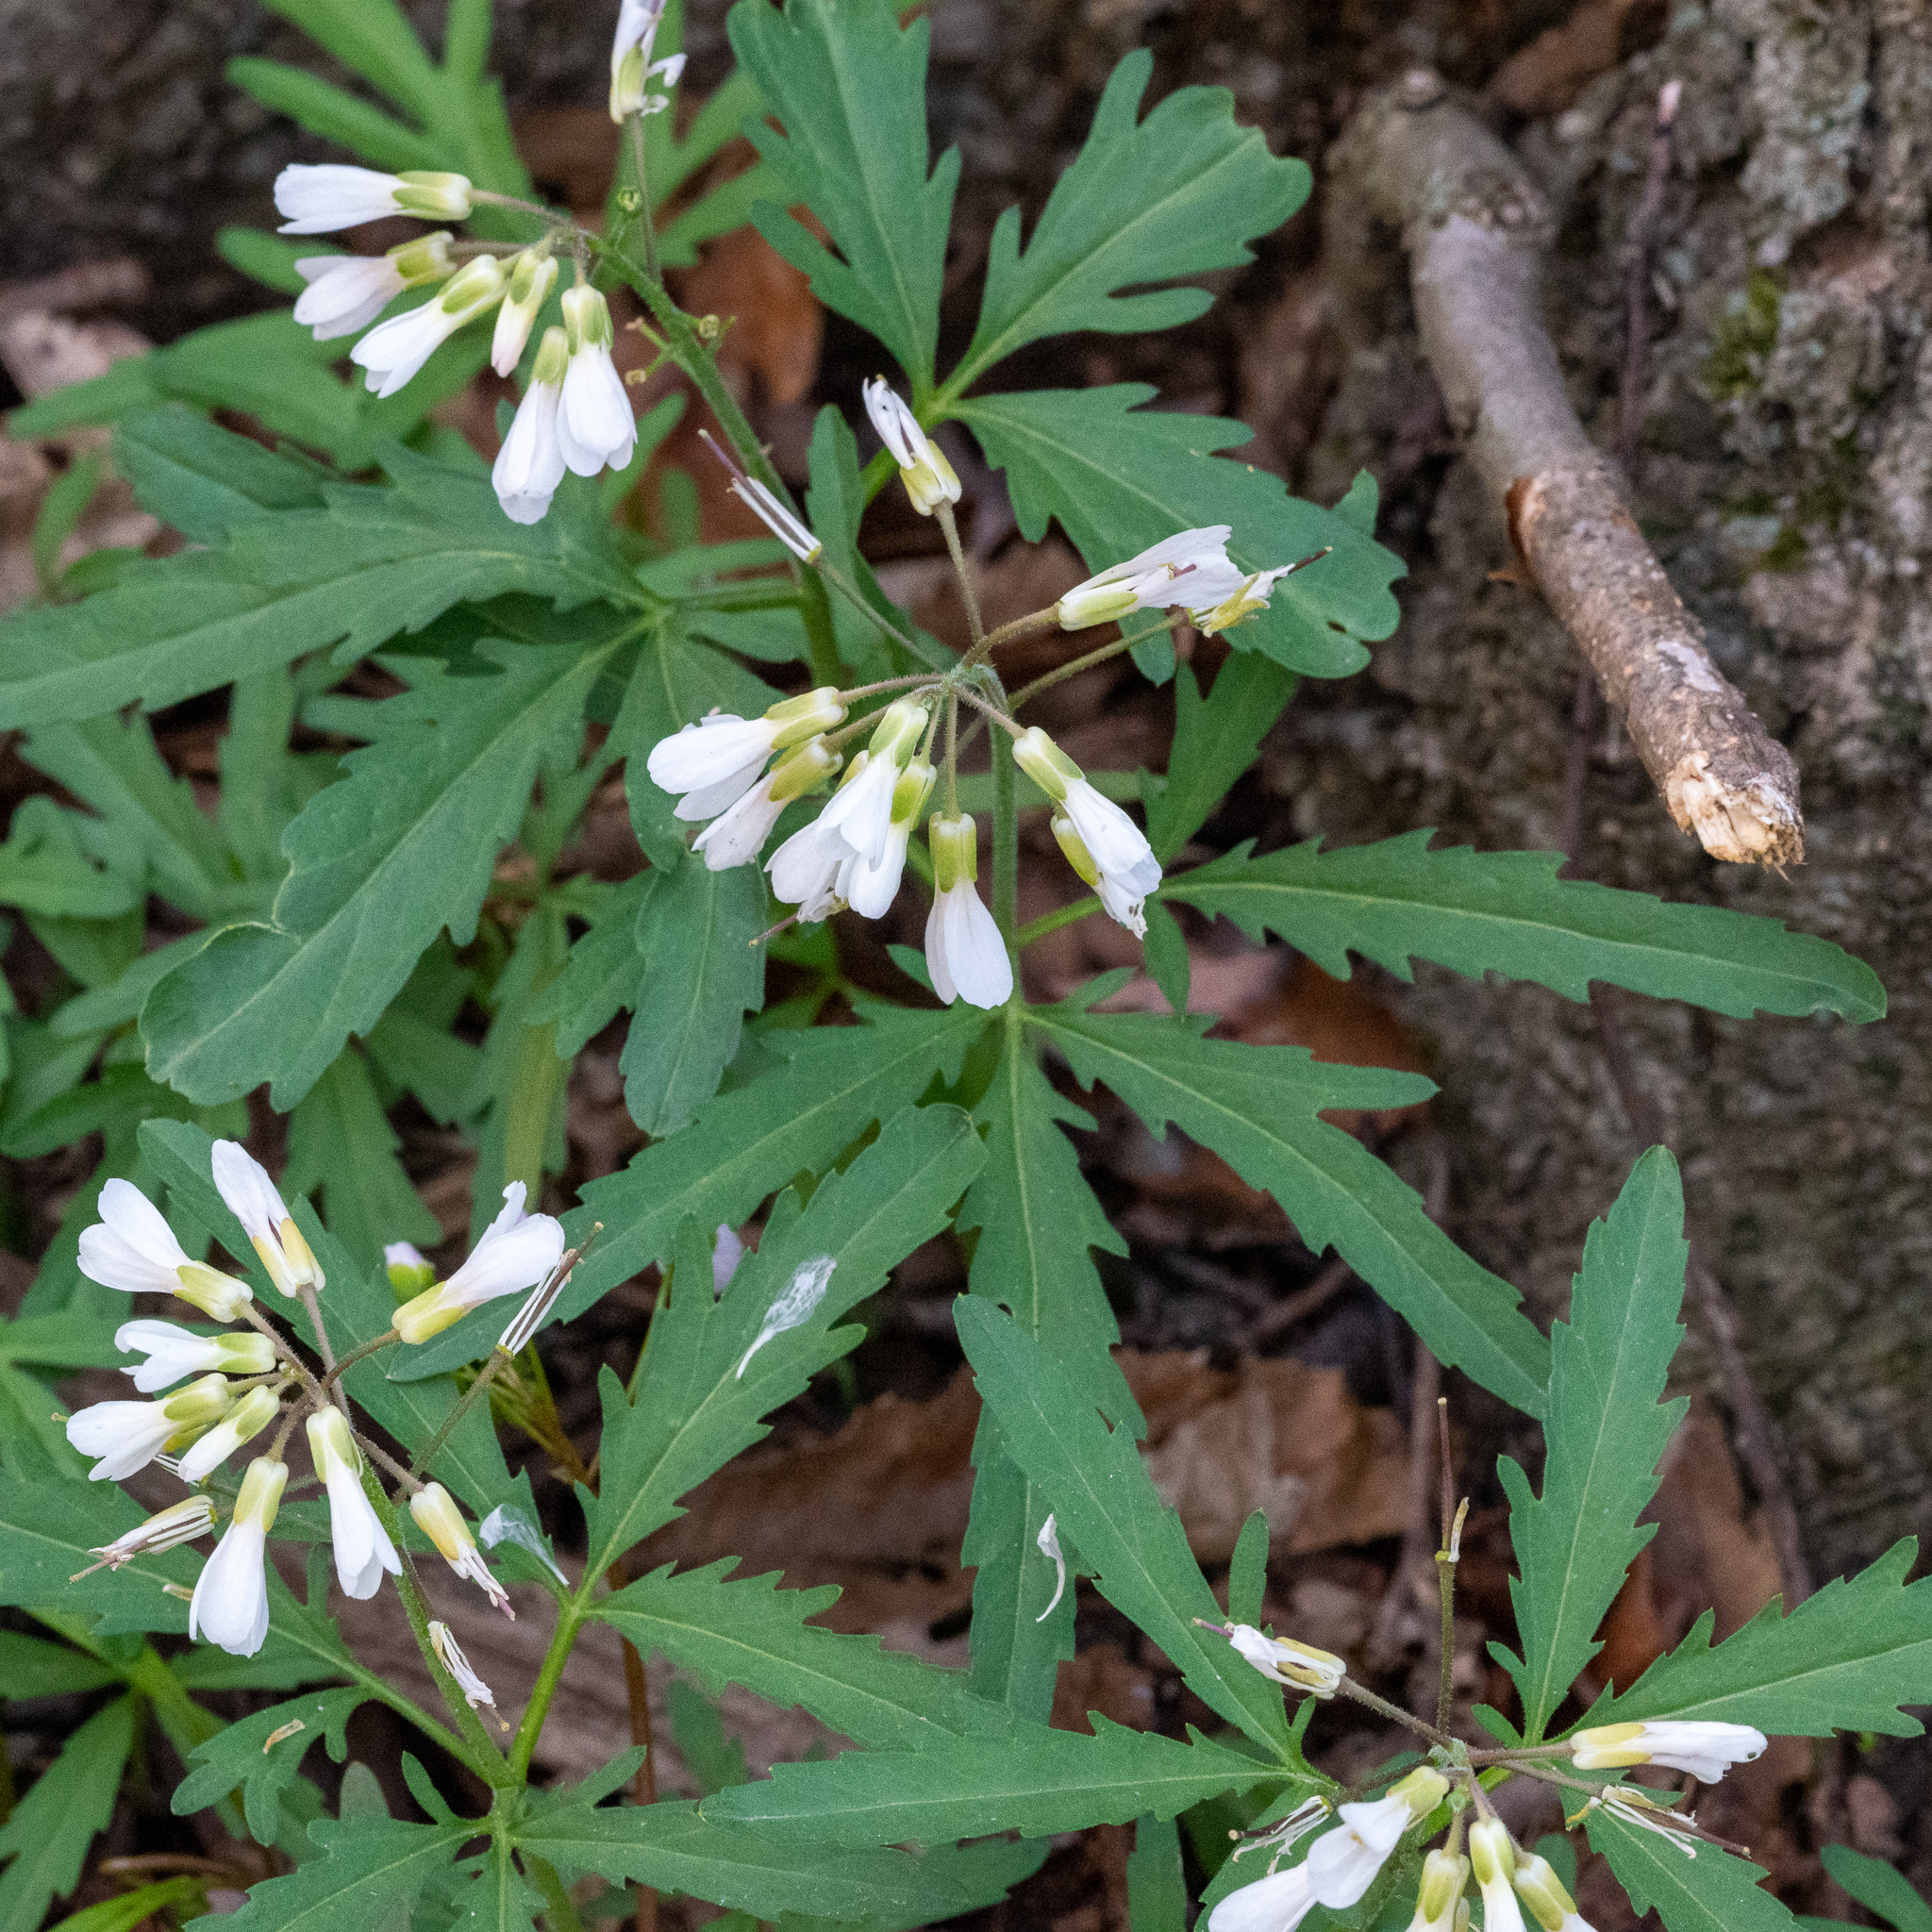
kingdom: Plantae
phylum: Tracheophyta
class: Magnoliopsida
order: Brassicales
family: Brassicaceae
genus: Cardamine
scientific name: Cardamine concatenata
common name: Cut-leaf toothcup
